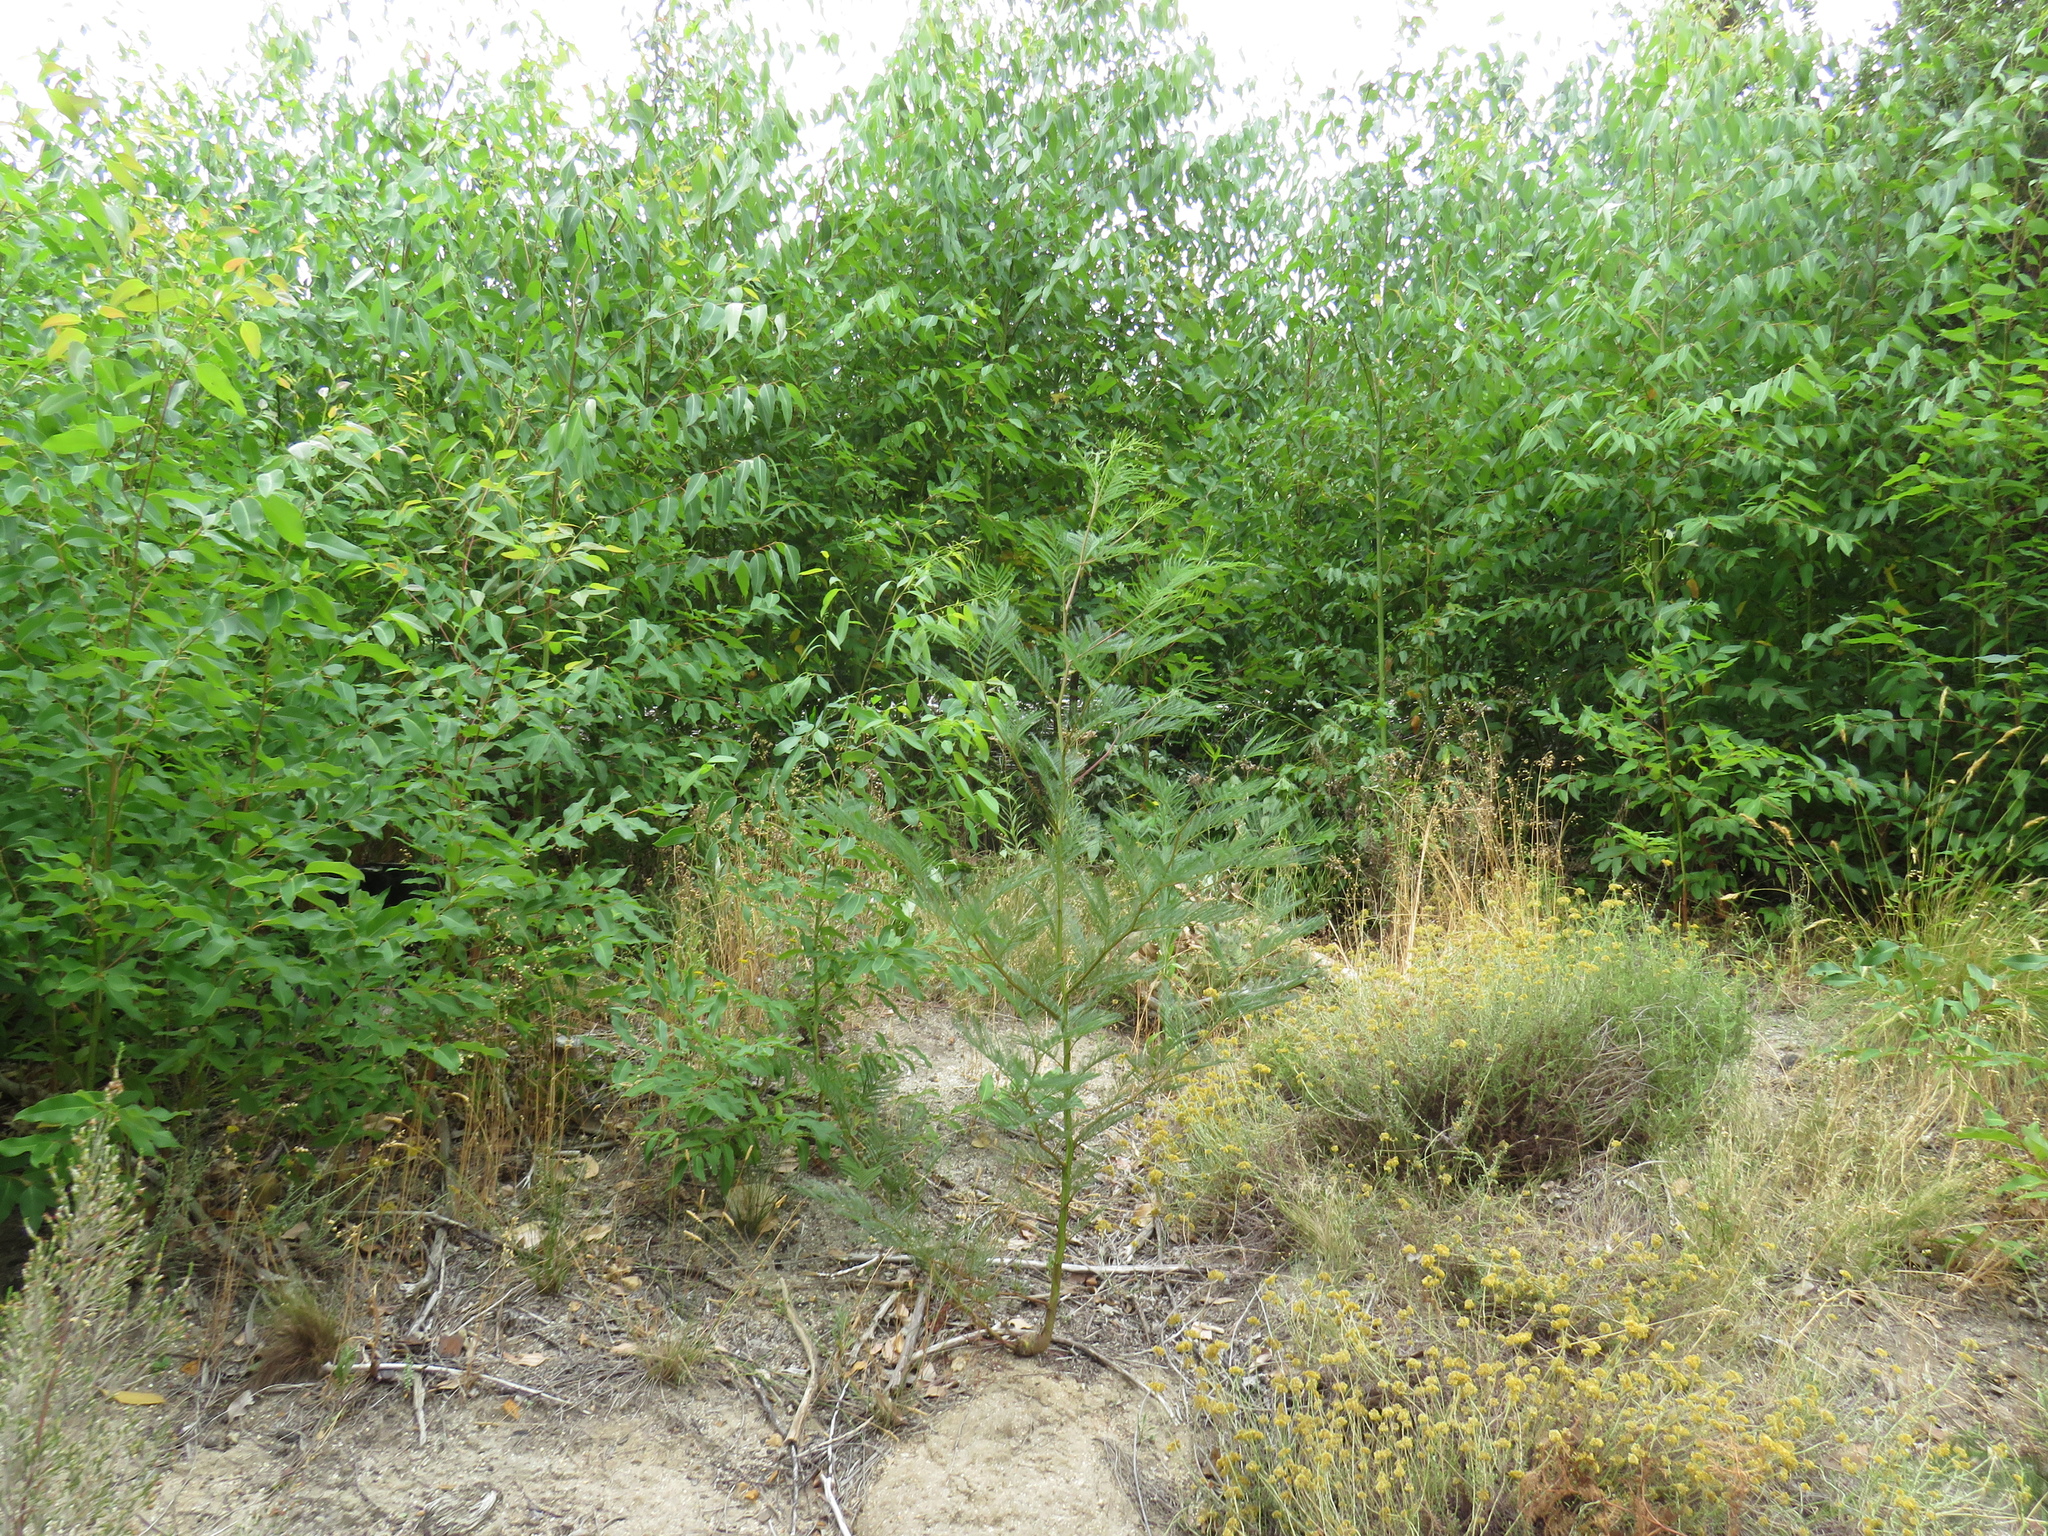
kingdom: Plantae
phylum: Tracheophyta
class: Magnoliopsida
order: Fabales
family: Fabaceae
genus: Acacia
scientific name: Acacia decurrens
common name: Green wattle
